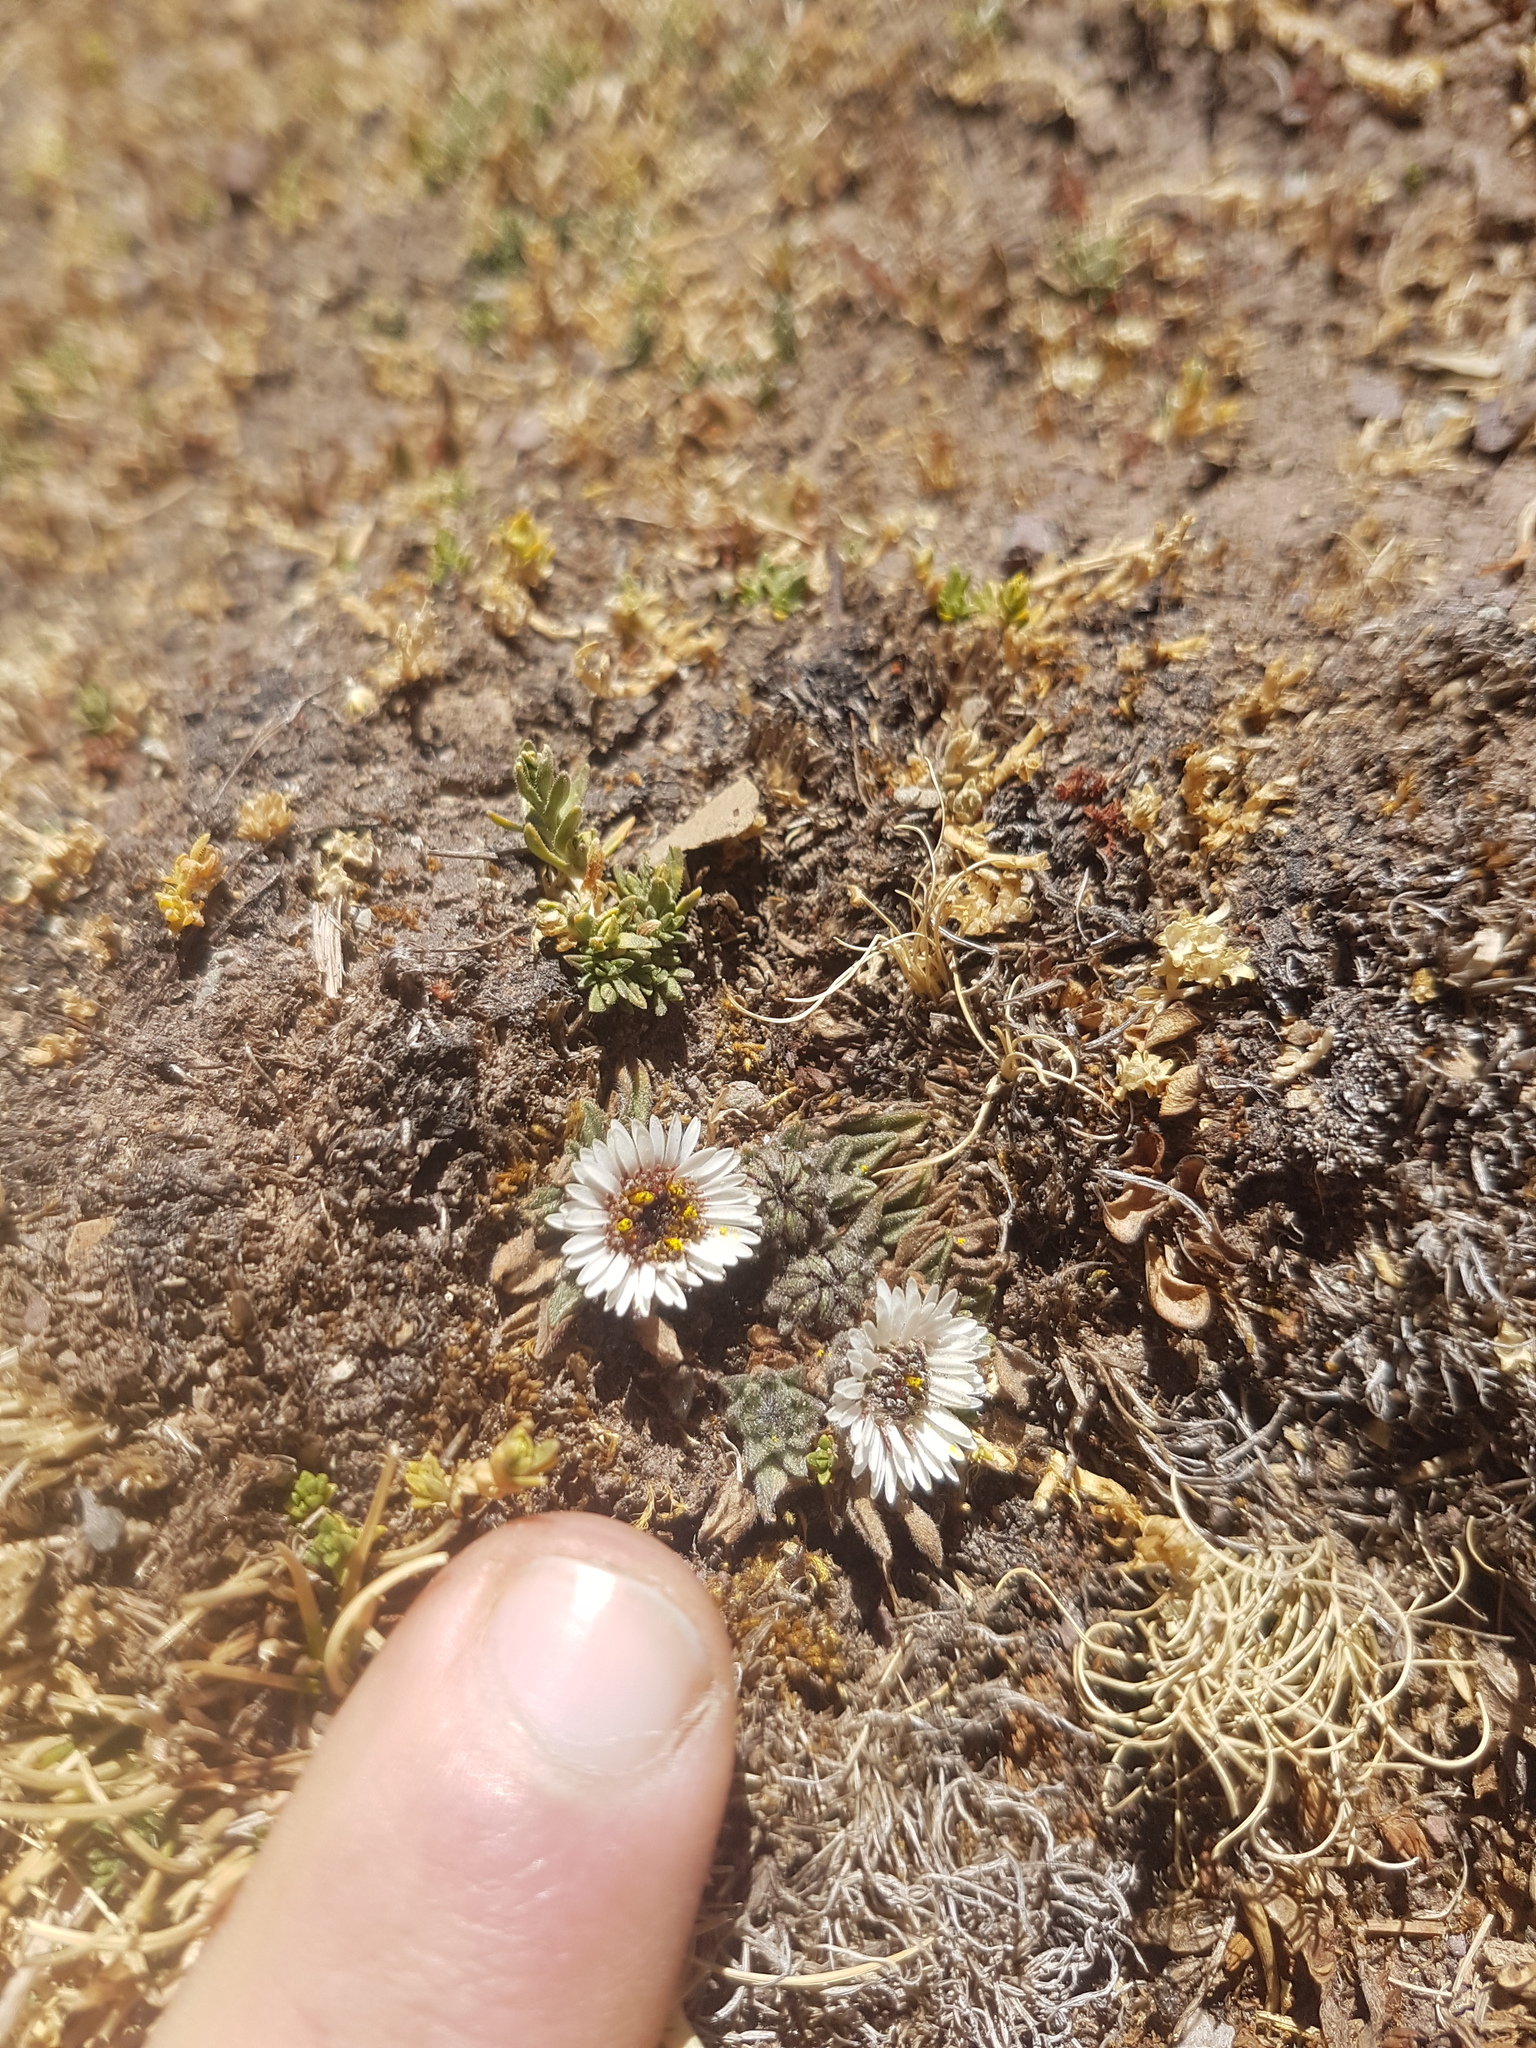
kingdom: Plantae
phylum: Tracheophyta
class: Magnoliopsida
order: Asterales
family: Asteraceae
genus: Erigeron
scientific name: Erigeron rosulatus
